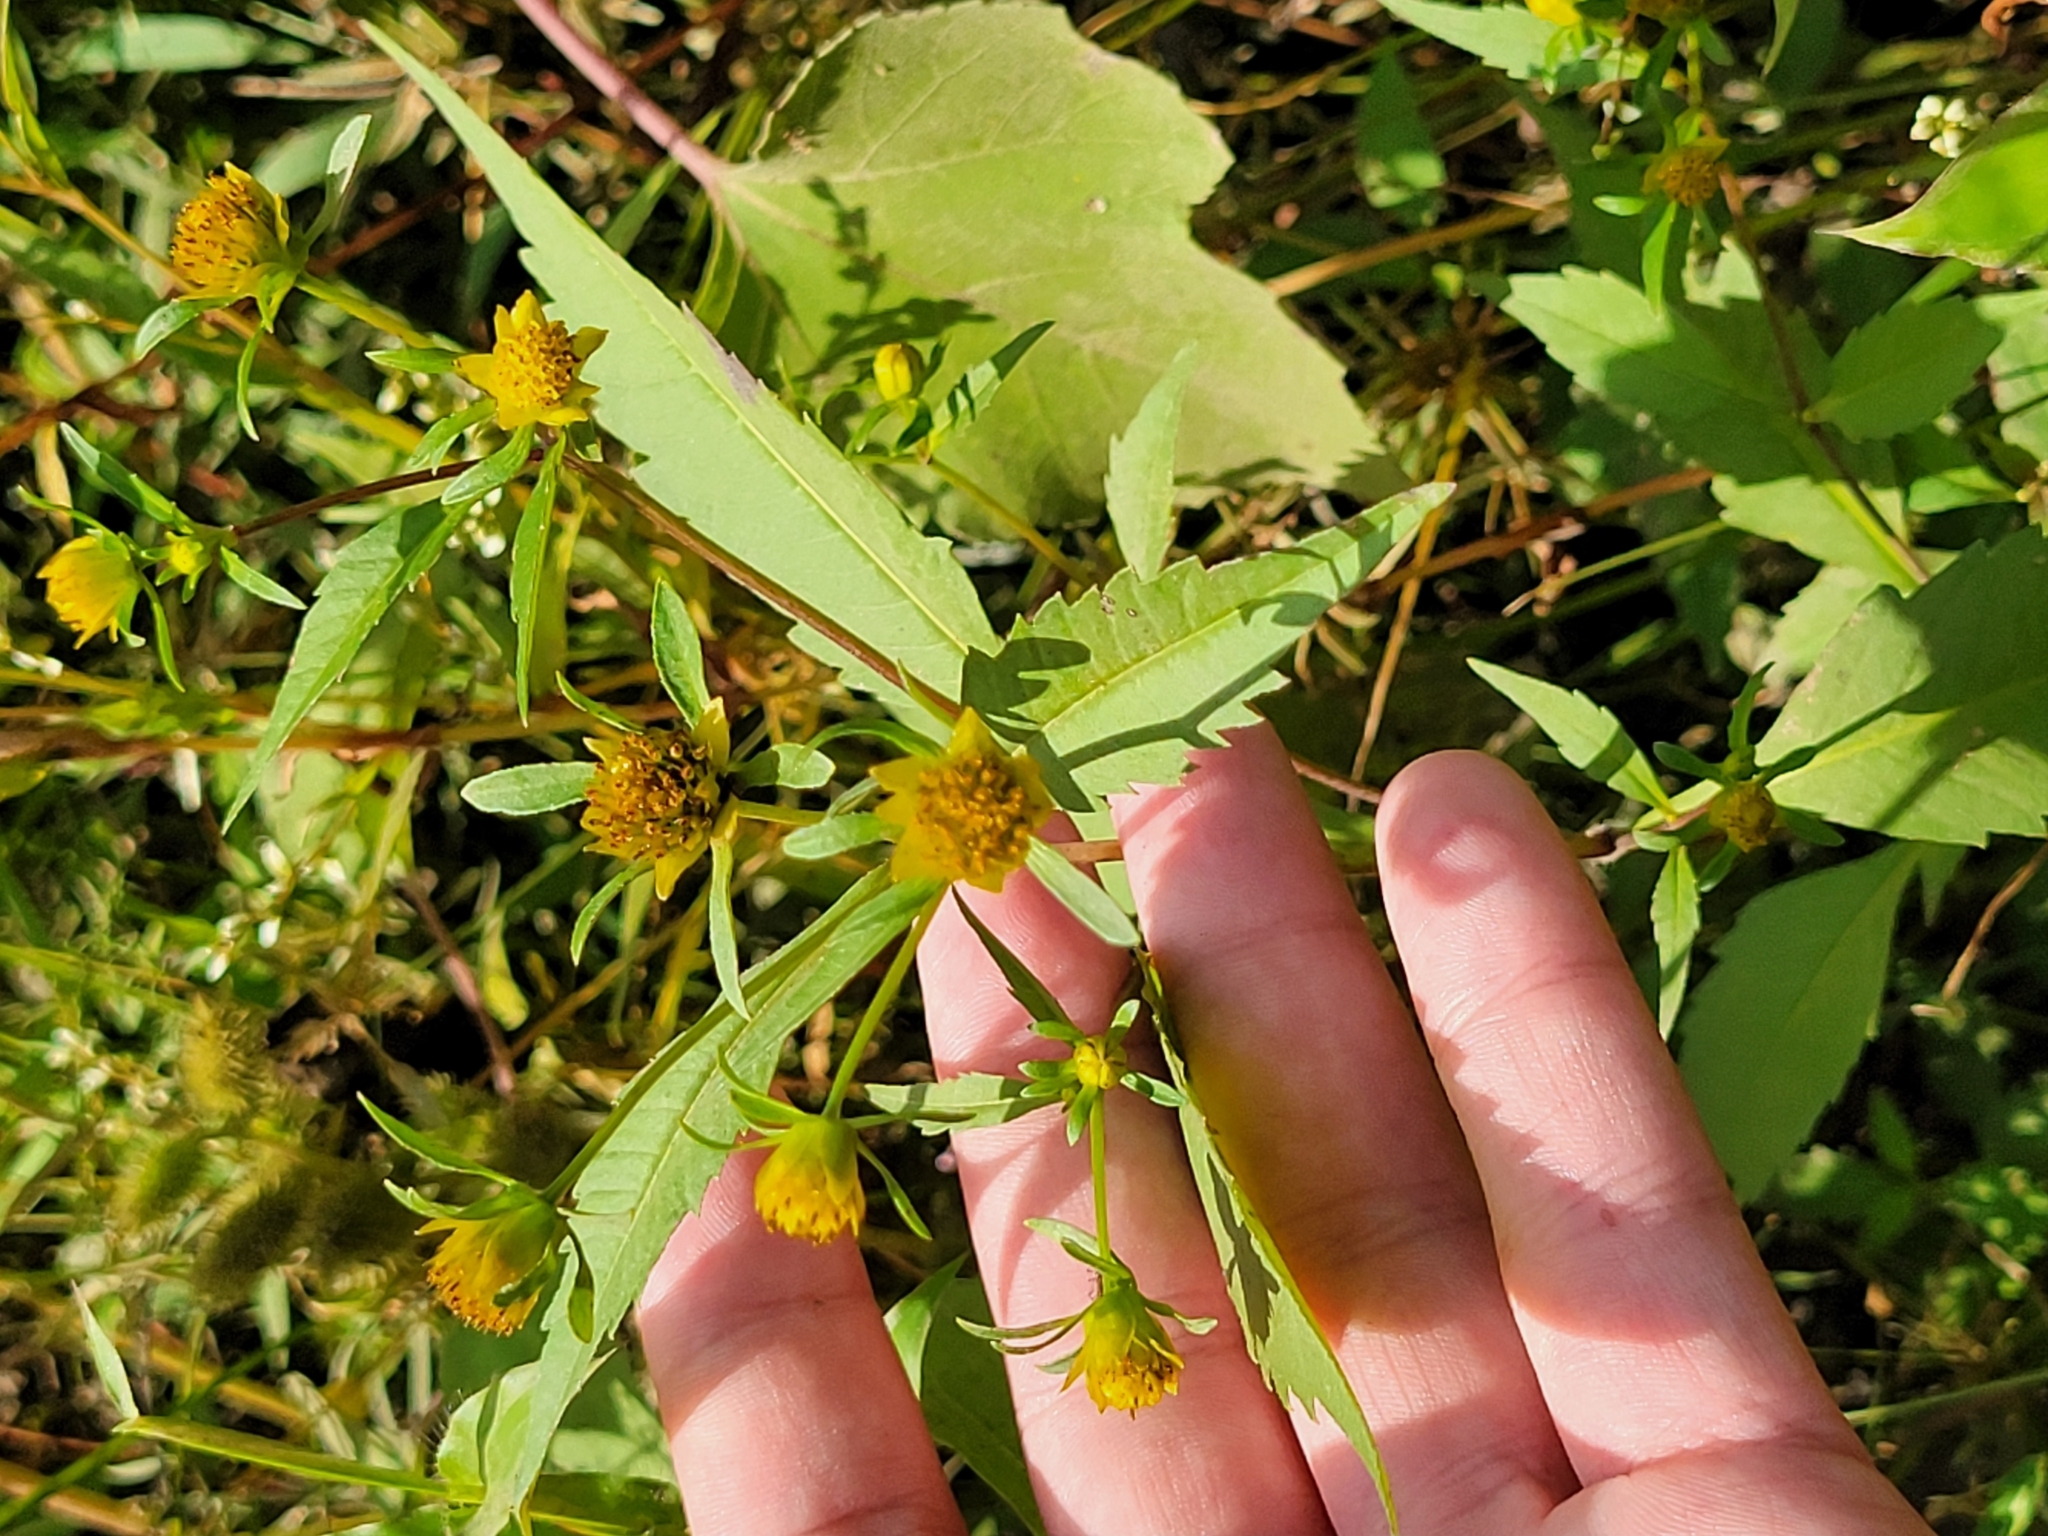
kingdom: Plantae
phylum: Tracheophyta
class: Magnoliopsida
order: Asterales
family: Asteraceae
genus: Bidens
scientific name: Bidens connata
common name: London bur-marigold
